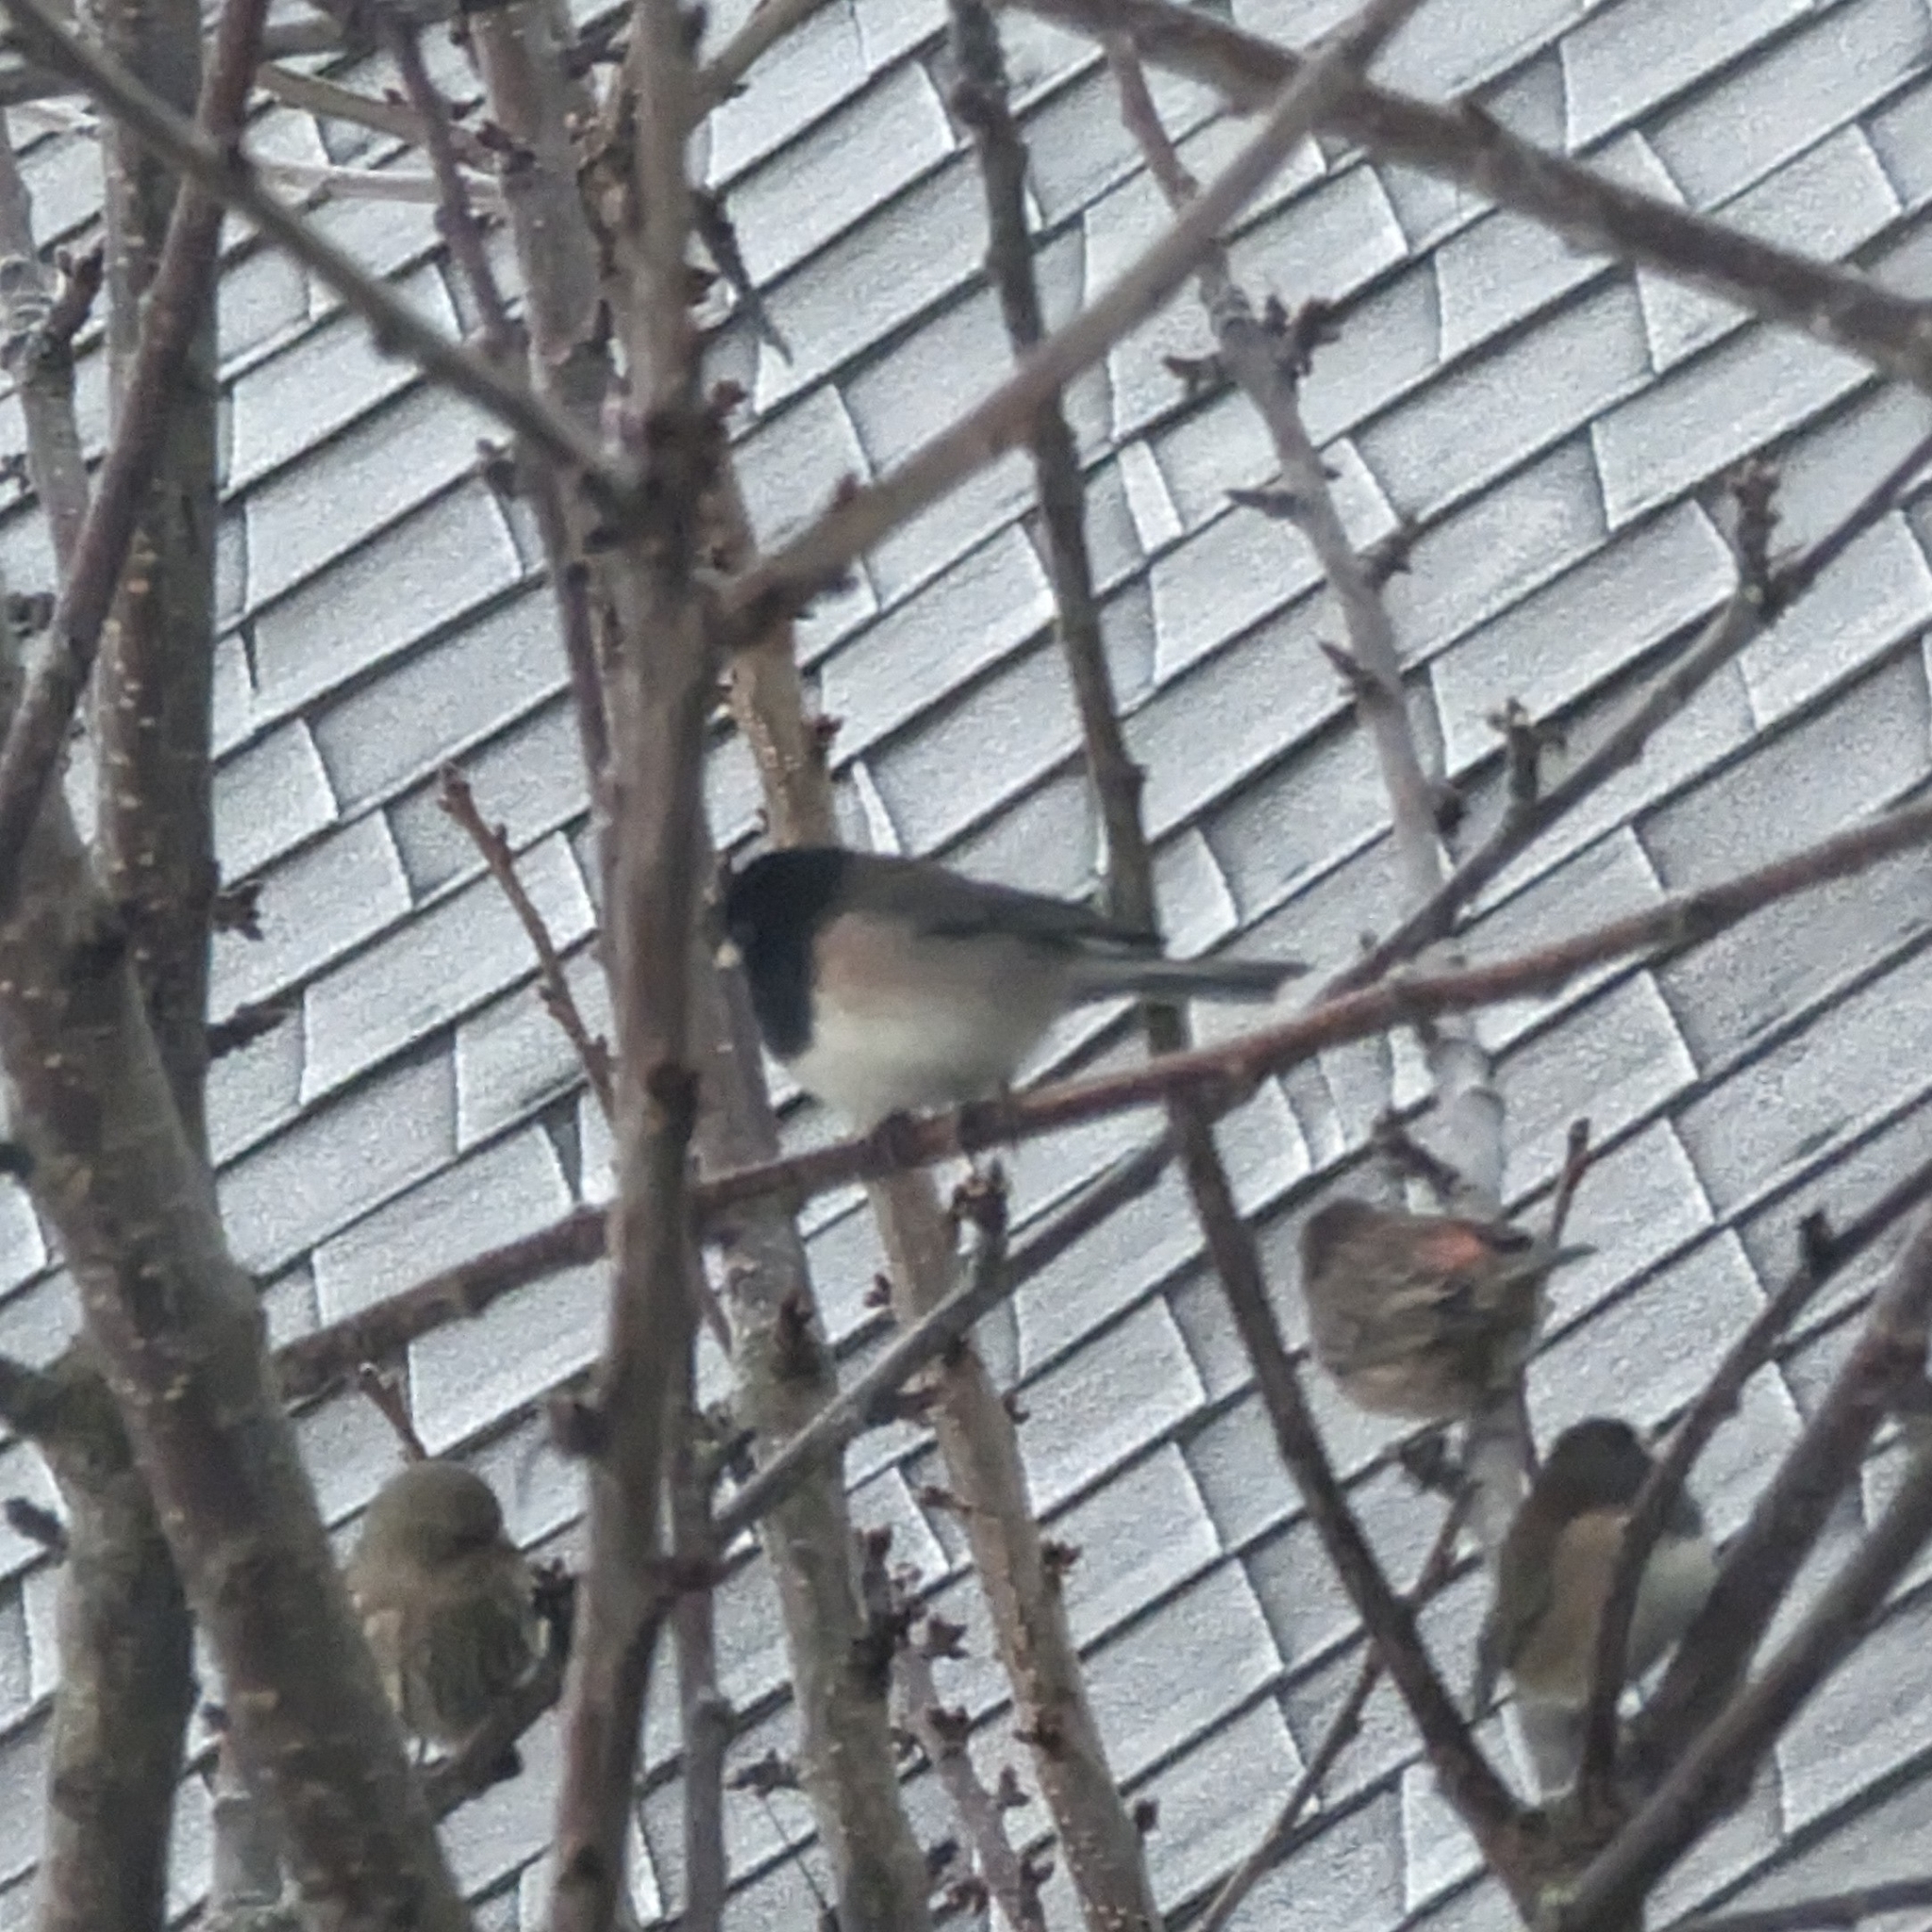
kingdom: Animalia
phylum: Chordata
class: Aves
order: Passeriformes
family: Passerellidae
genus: Junco
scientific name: Junco hyemalis
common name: Dark-eyed junco
